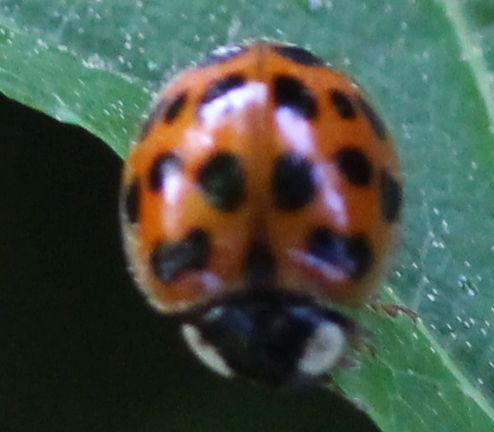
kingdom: Animalia
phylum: Arthropoda
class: Insecta
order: Coleoptera
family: Coccinellidae
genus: Harmonia
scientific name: Harmonia axyridis
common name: Harlequin ladybird
